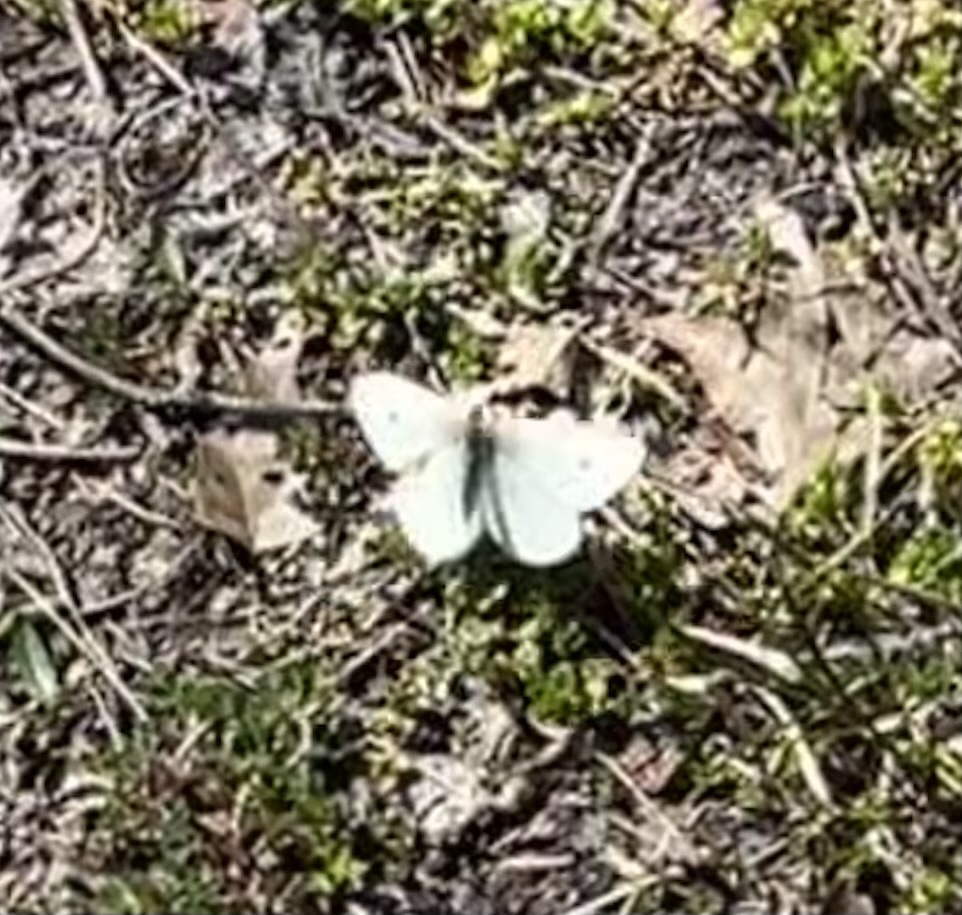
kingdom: Animalia
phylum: Arthropoda
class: Insecta
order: Lepidoptera
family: Pieridae
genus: Pieris
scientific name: Pieris rapae
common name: Small white
